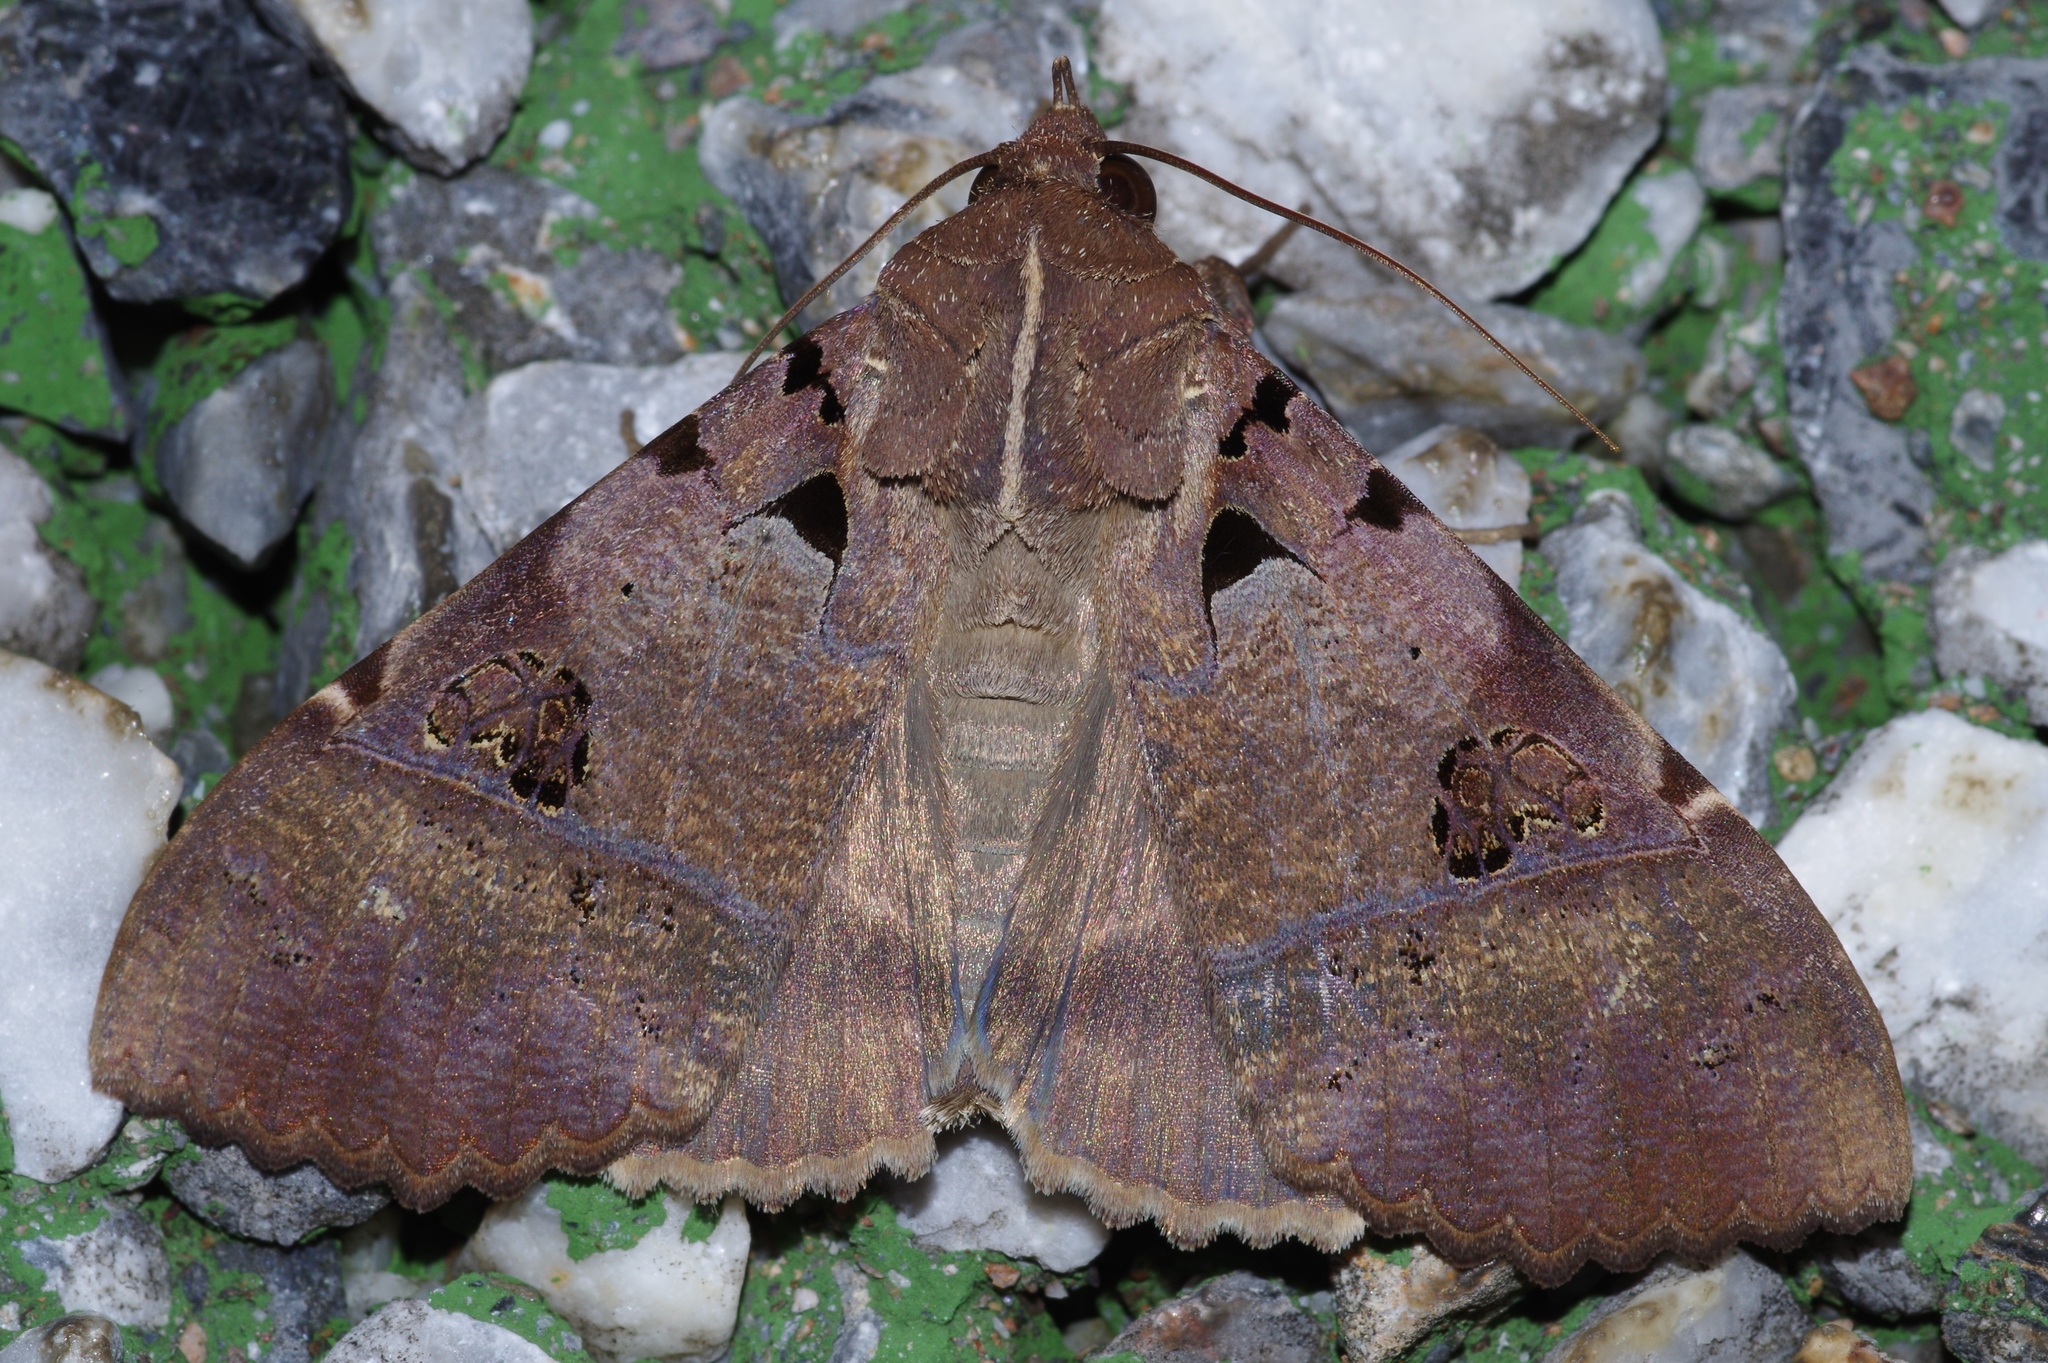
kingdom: Animalia
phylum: Arthropoda
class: Insecta
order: Lepidoptera
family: Erebidae
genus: Serrodes
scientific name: Serrodes campana
